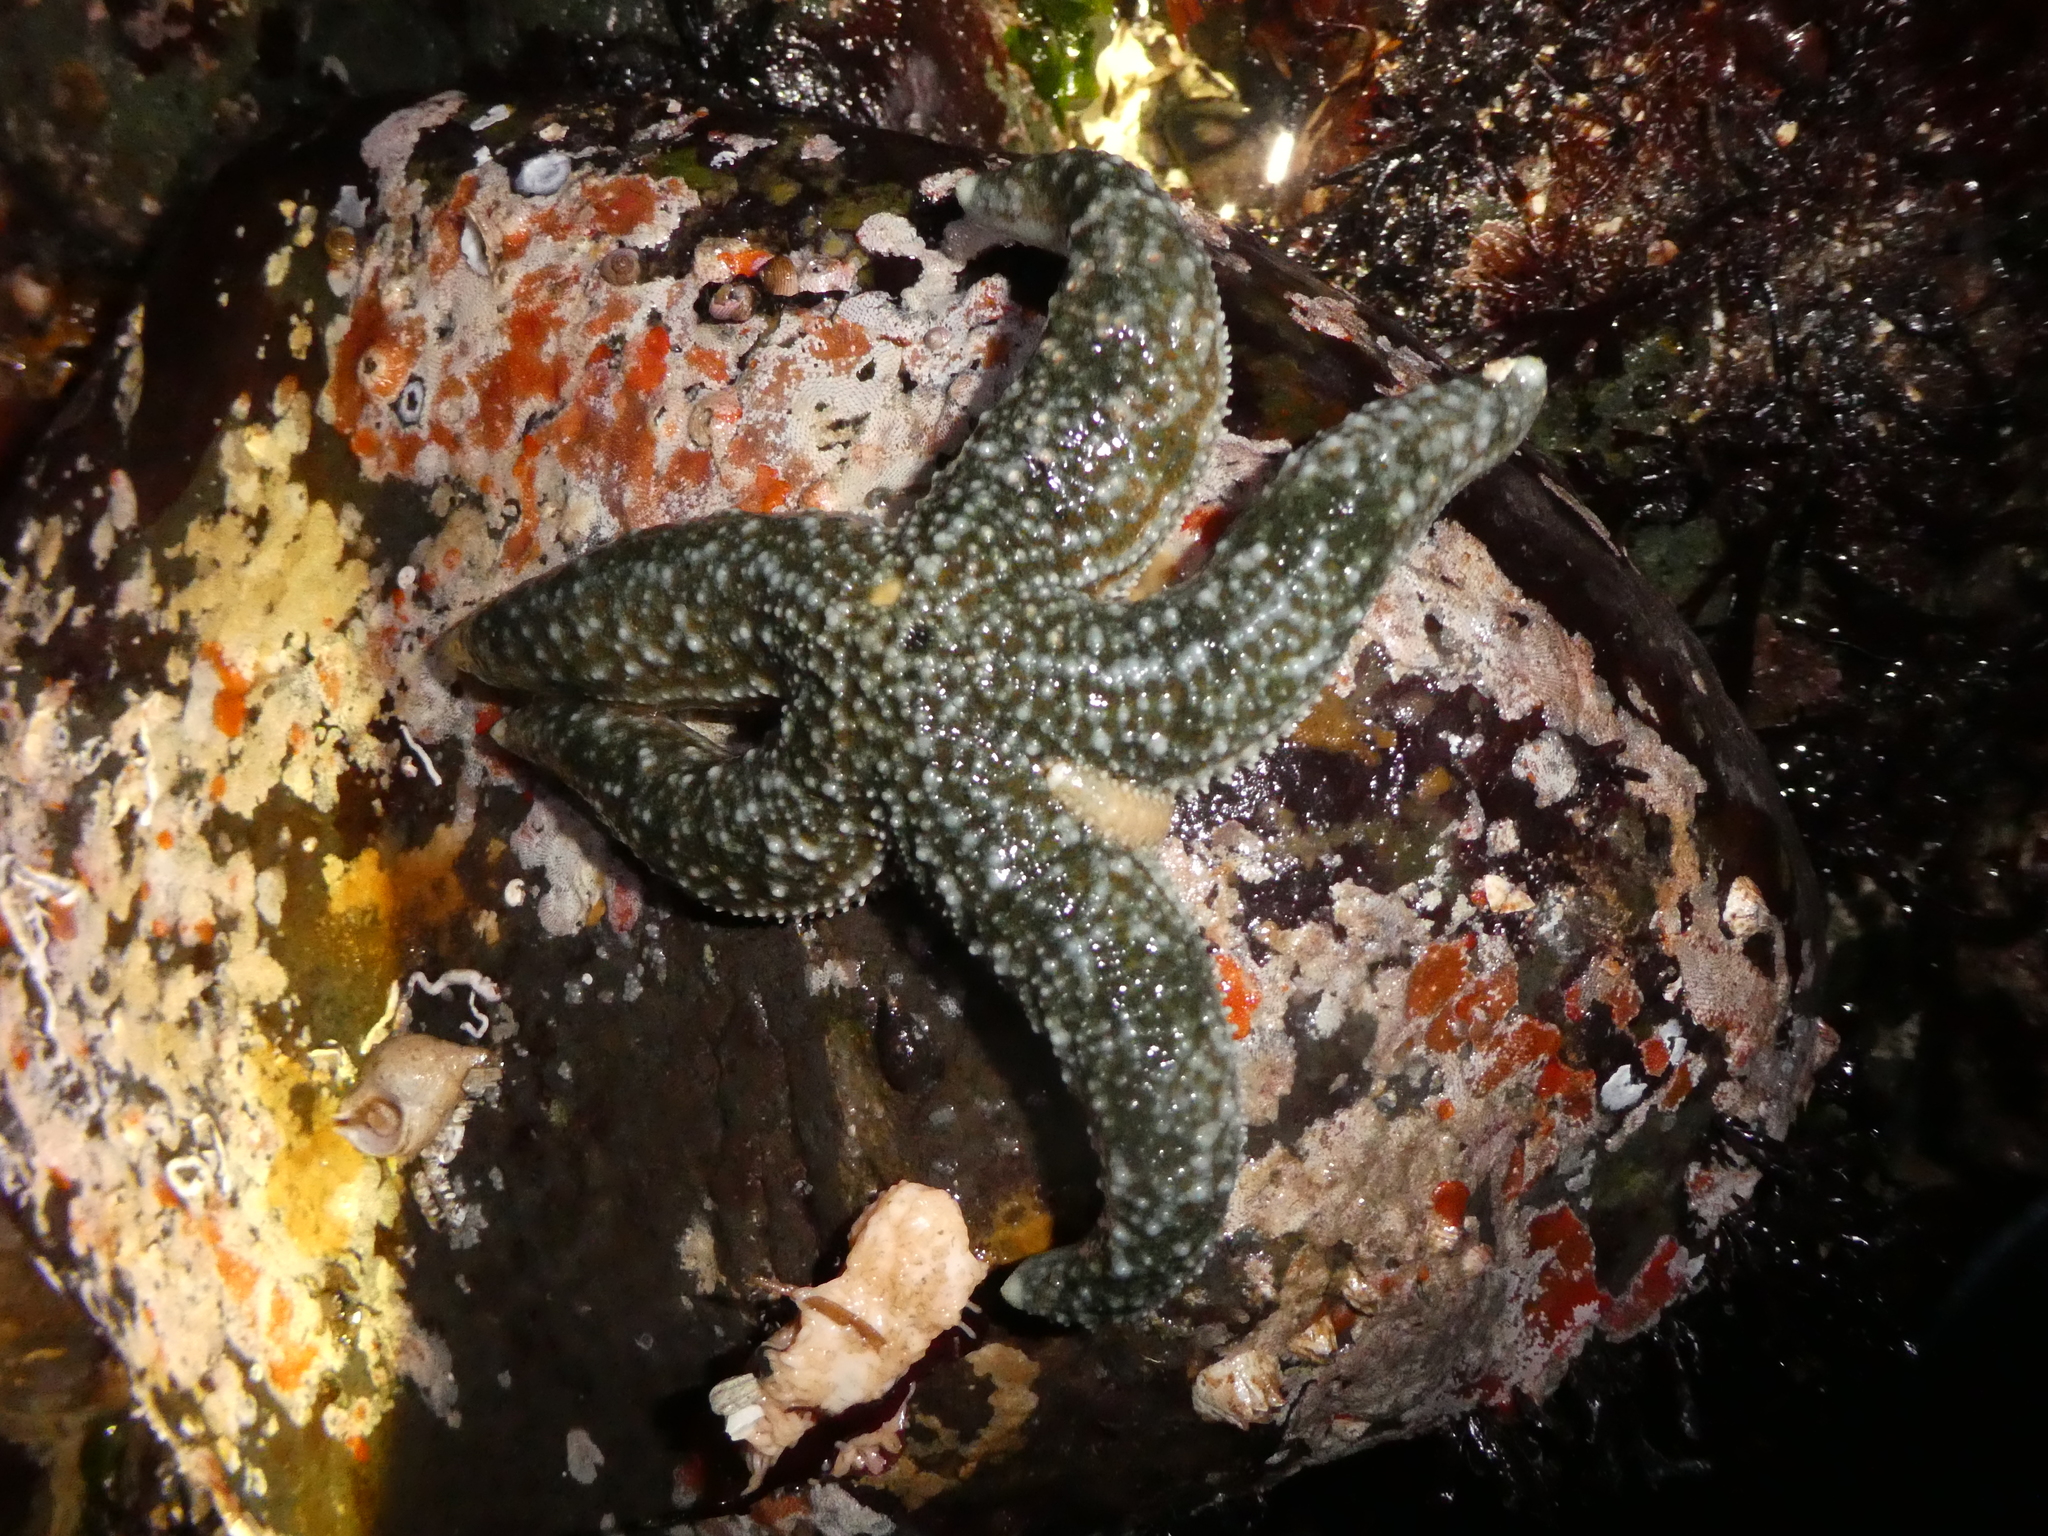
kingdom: Animalia
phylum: Echinodermata
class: Asteroidea
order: Forcipulatida
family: Asteriidae
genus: Evasterias
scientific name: Evasterias troschelii
